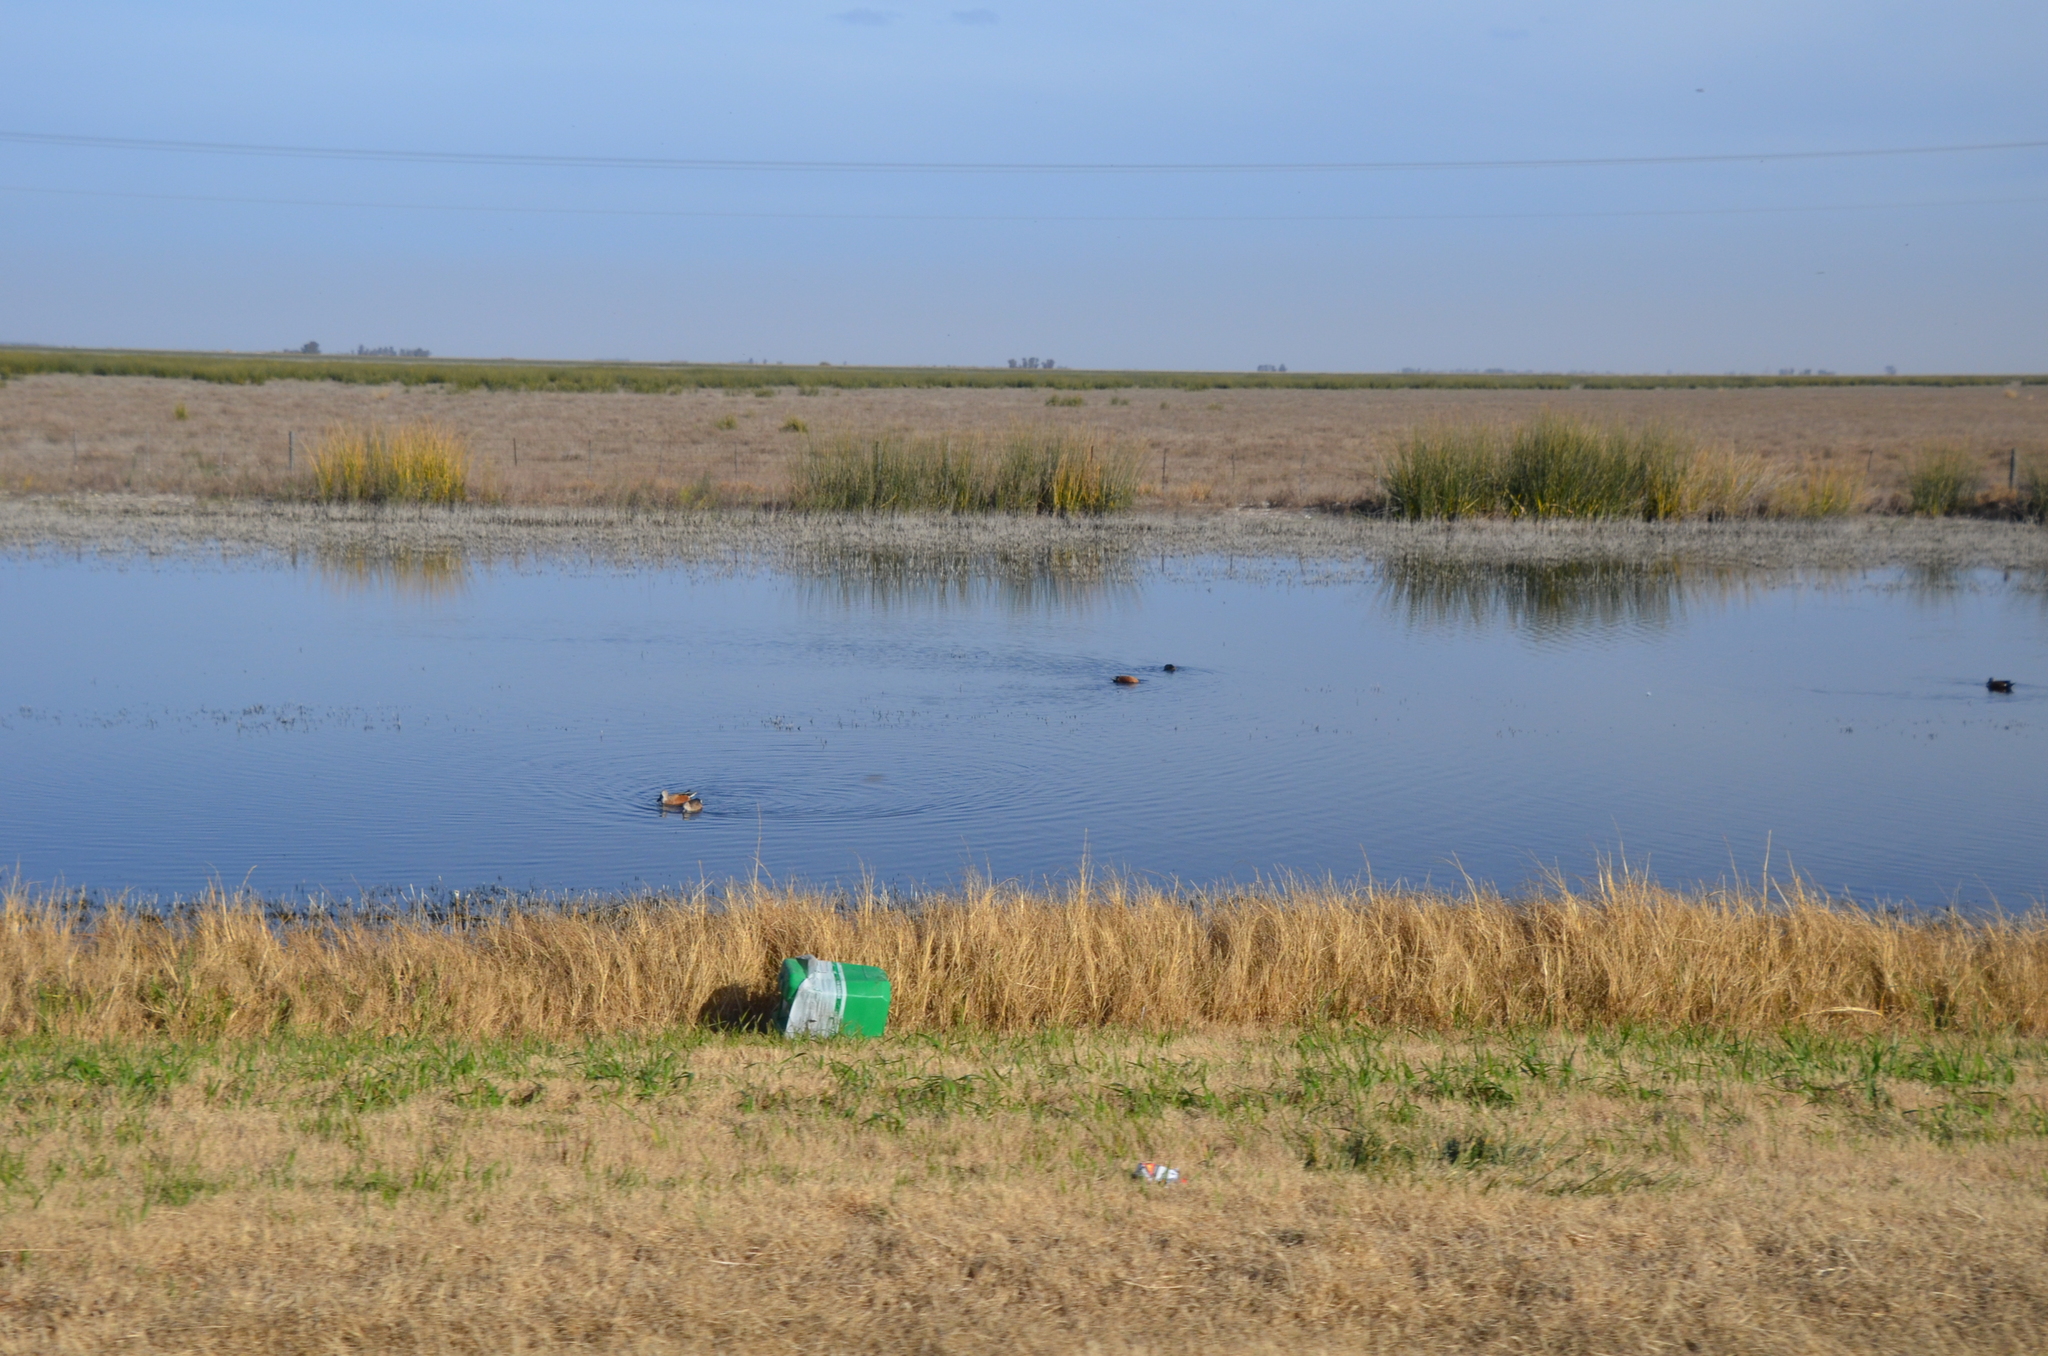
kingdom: Animalia
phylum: Chordata
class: Aves
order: Anseriformes
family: Anatidae
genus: Spatula
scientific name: Spatula platalea
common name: Red shoveler
